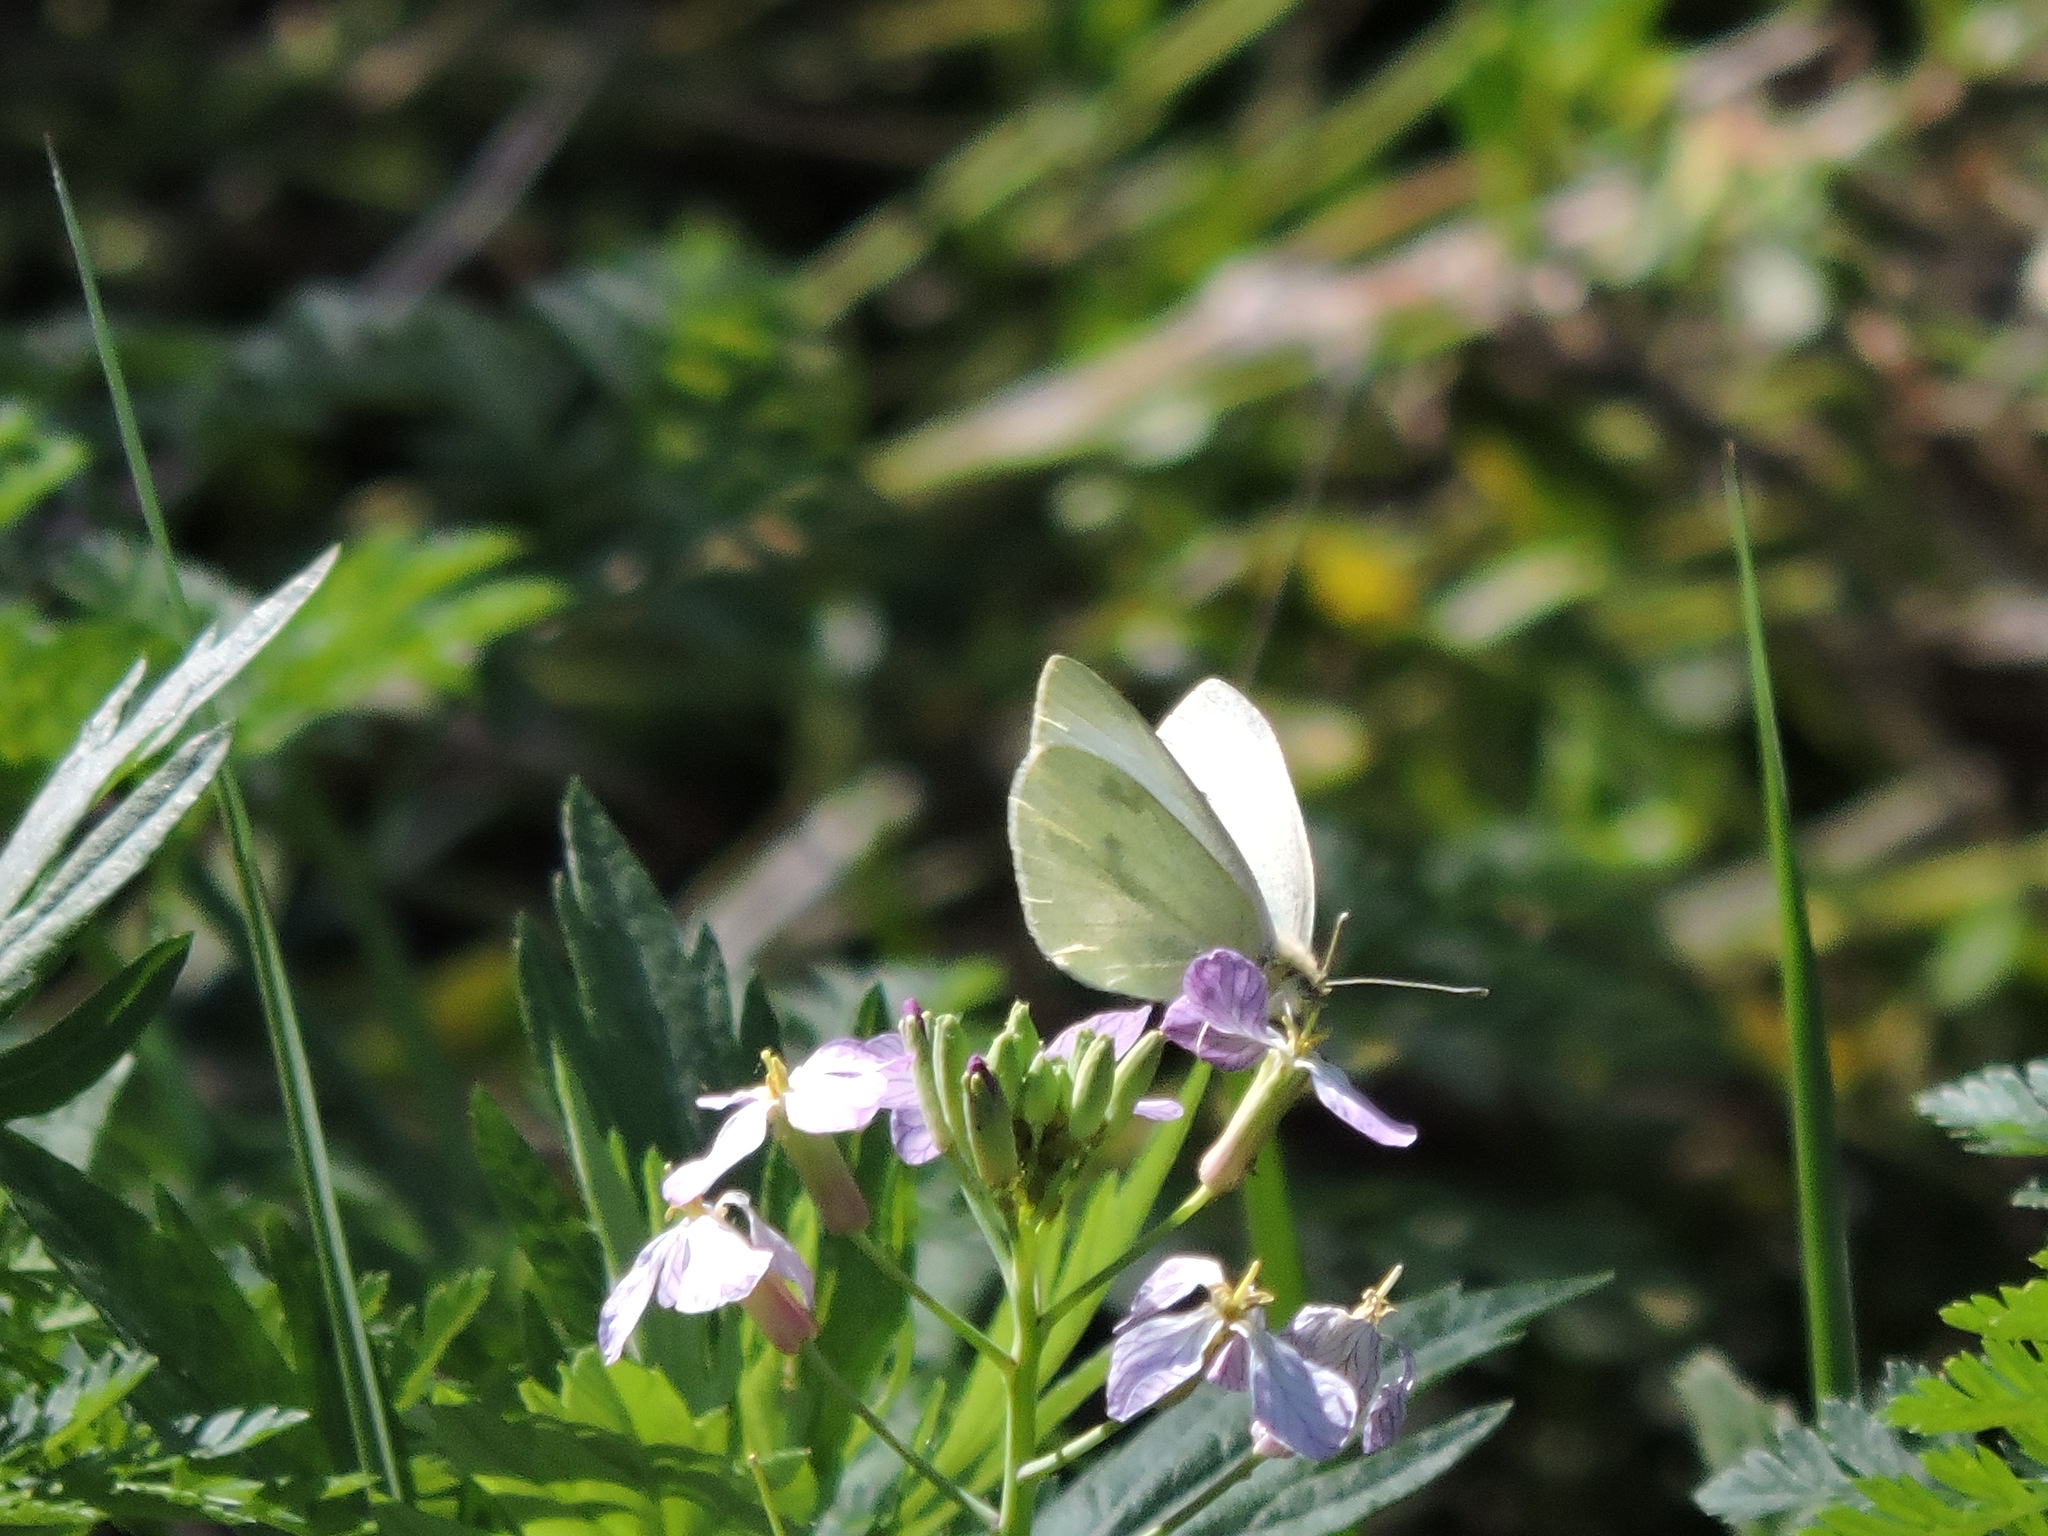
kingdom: Animalia
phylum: Arthropoda
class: Insecta
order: Lepidoptera
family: Pieridae
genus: Pieris
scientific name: Pieris rapae
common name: Small white
